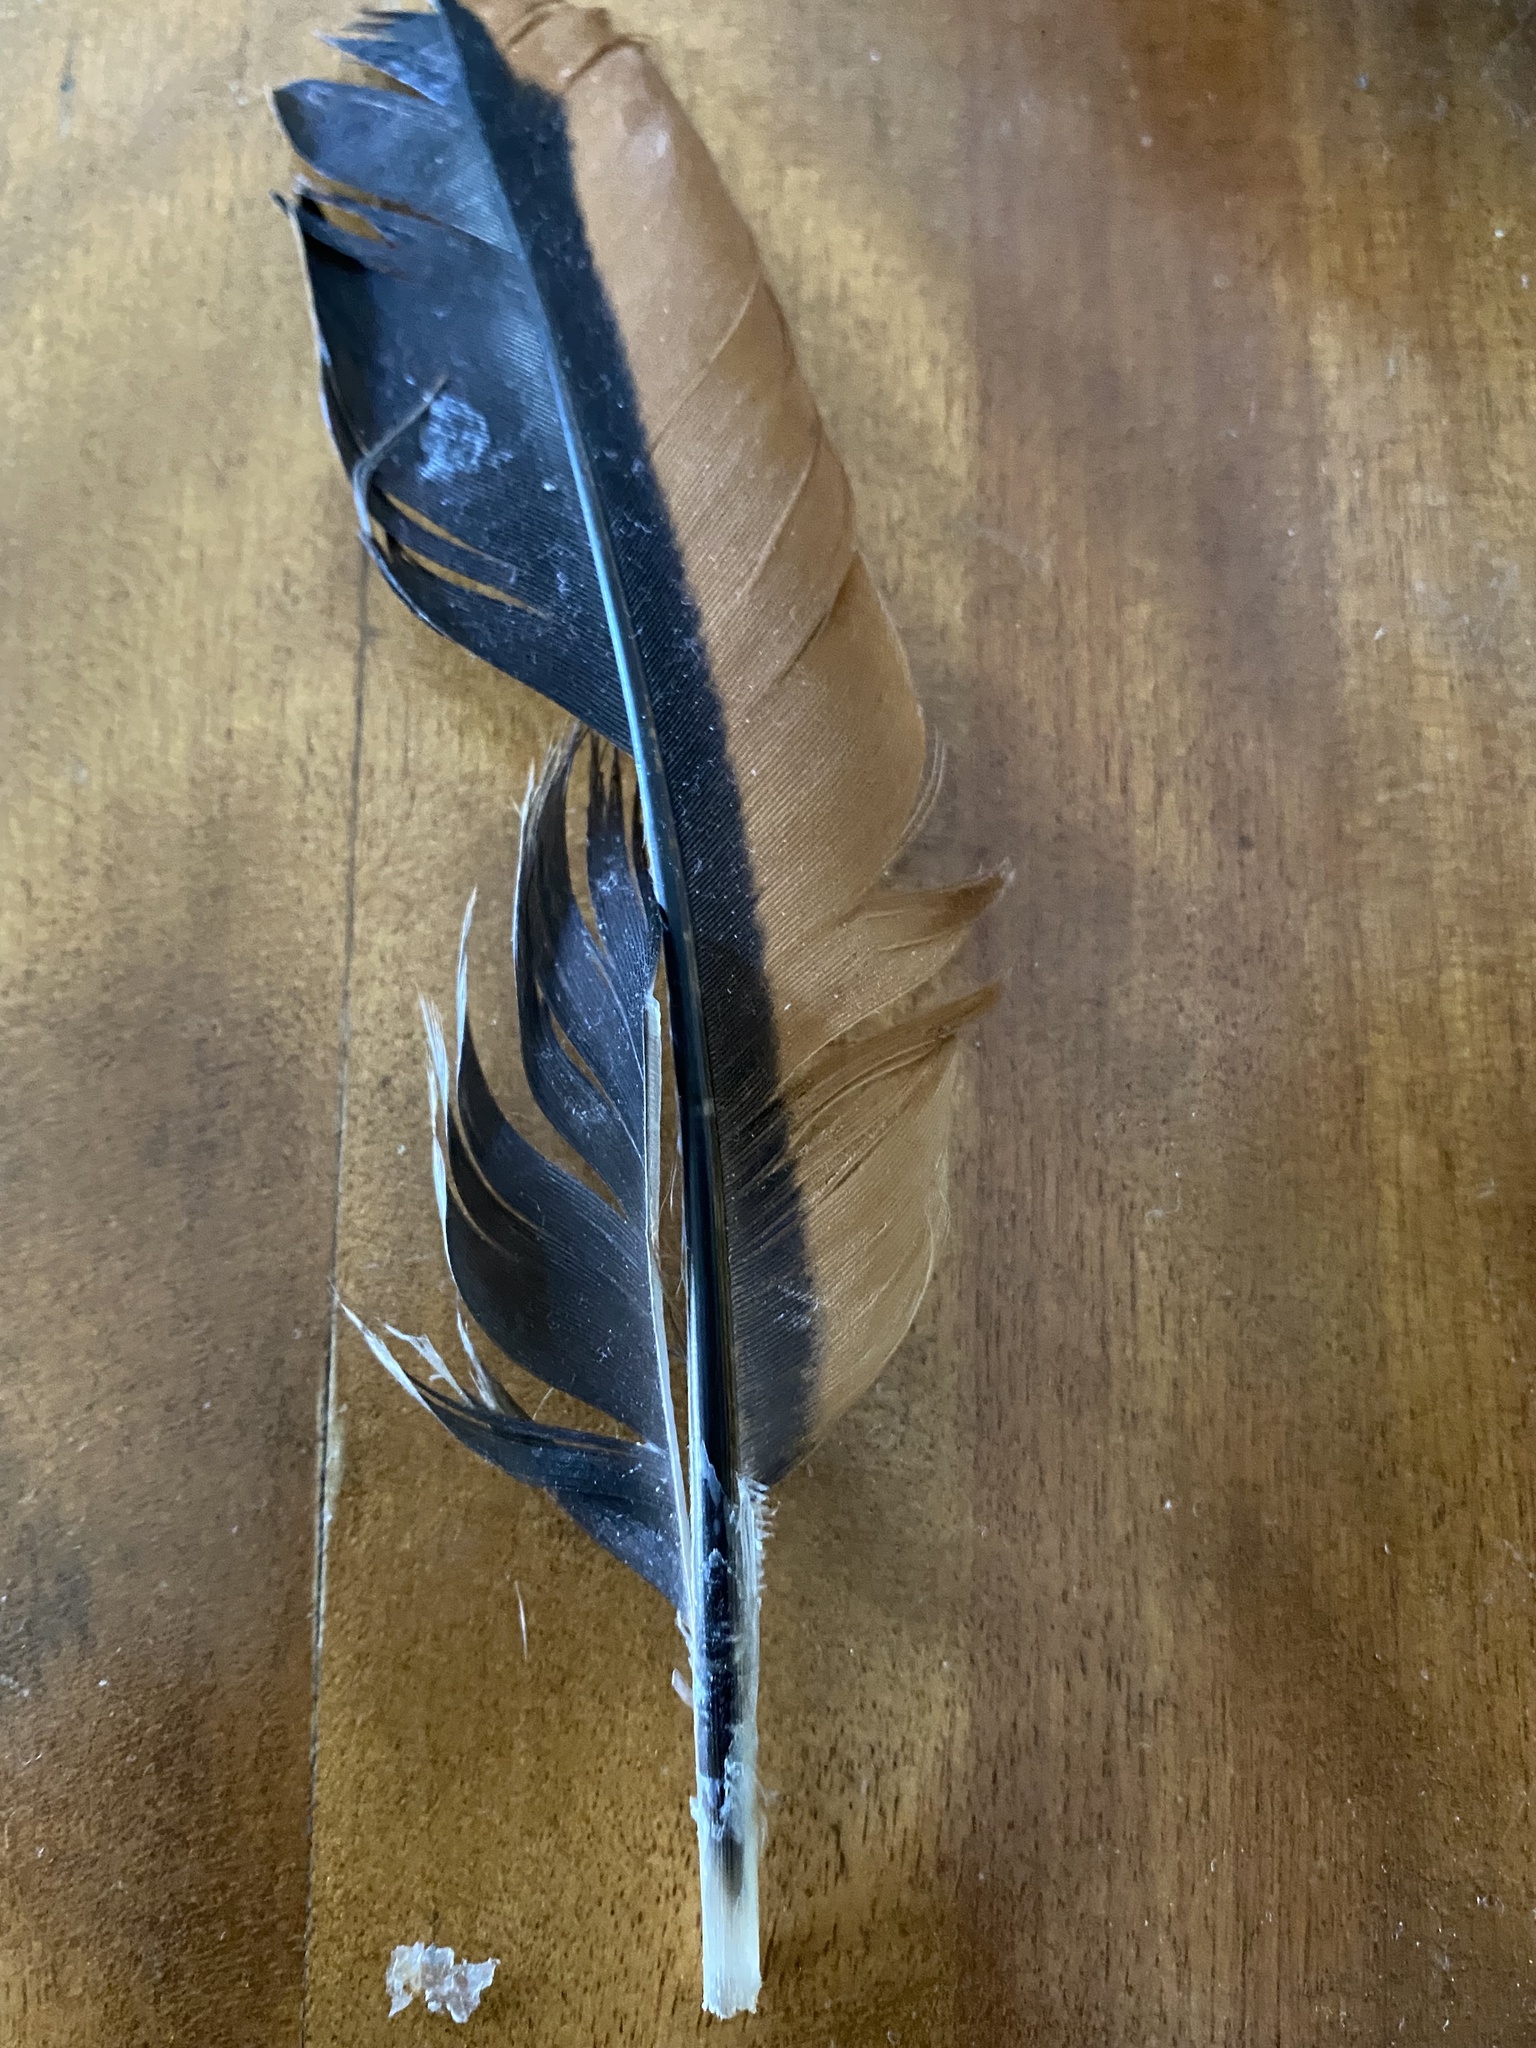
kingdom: Animalia
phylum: Chordata
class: Aves
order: Galliformes
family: Phasianidae
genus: Gallus
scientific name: Gallus gallus
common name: Red junglefowl
